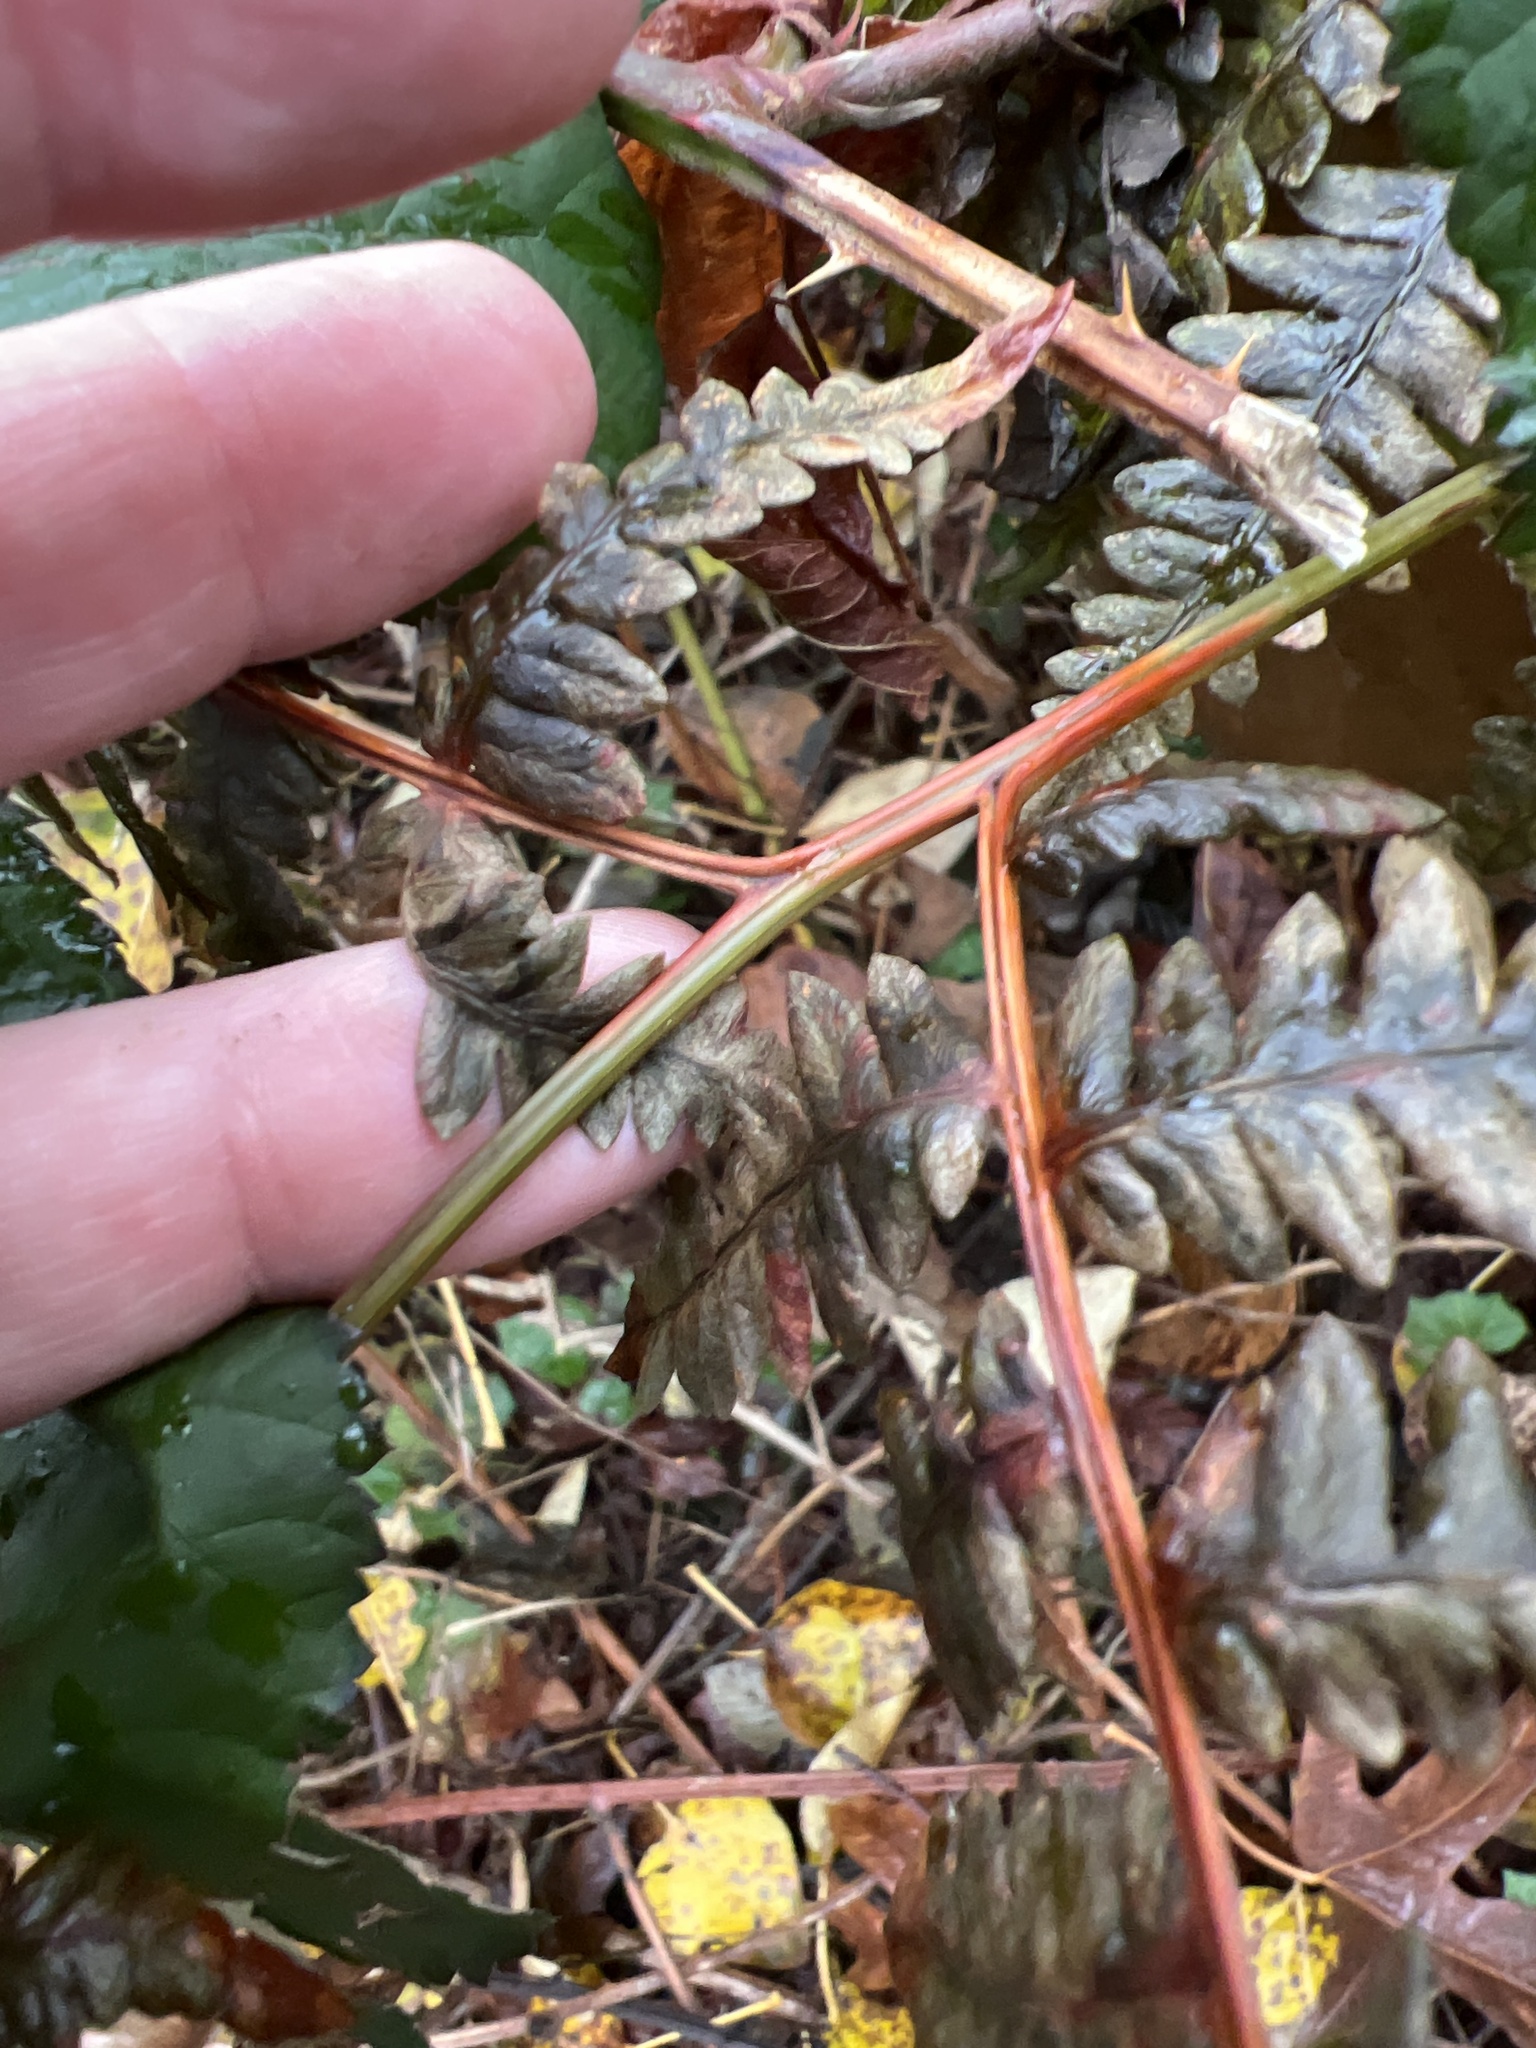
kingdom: Plantae
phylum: Tracheophyta
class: Polypodiopsida
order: Polypodiales
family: Dennstaedtiaceae
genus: Pteridium
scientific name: Pteridium aquilinum
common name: Bracken
